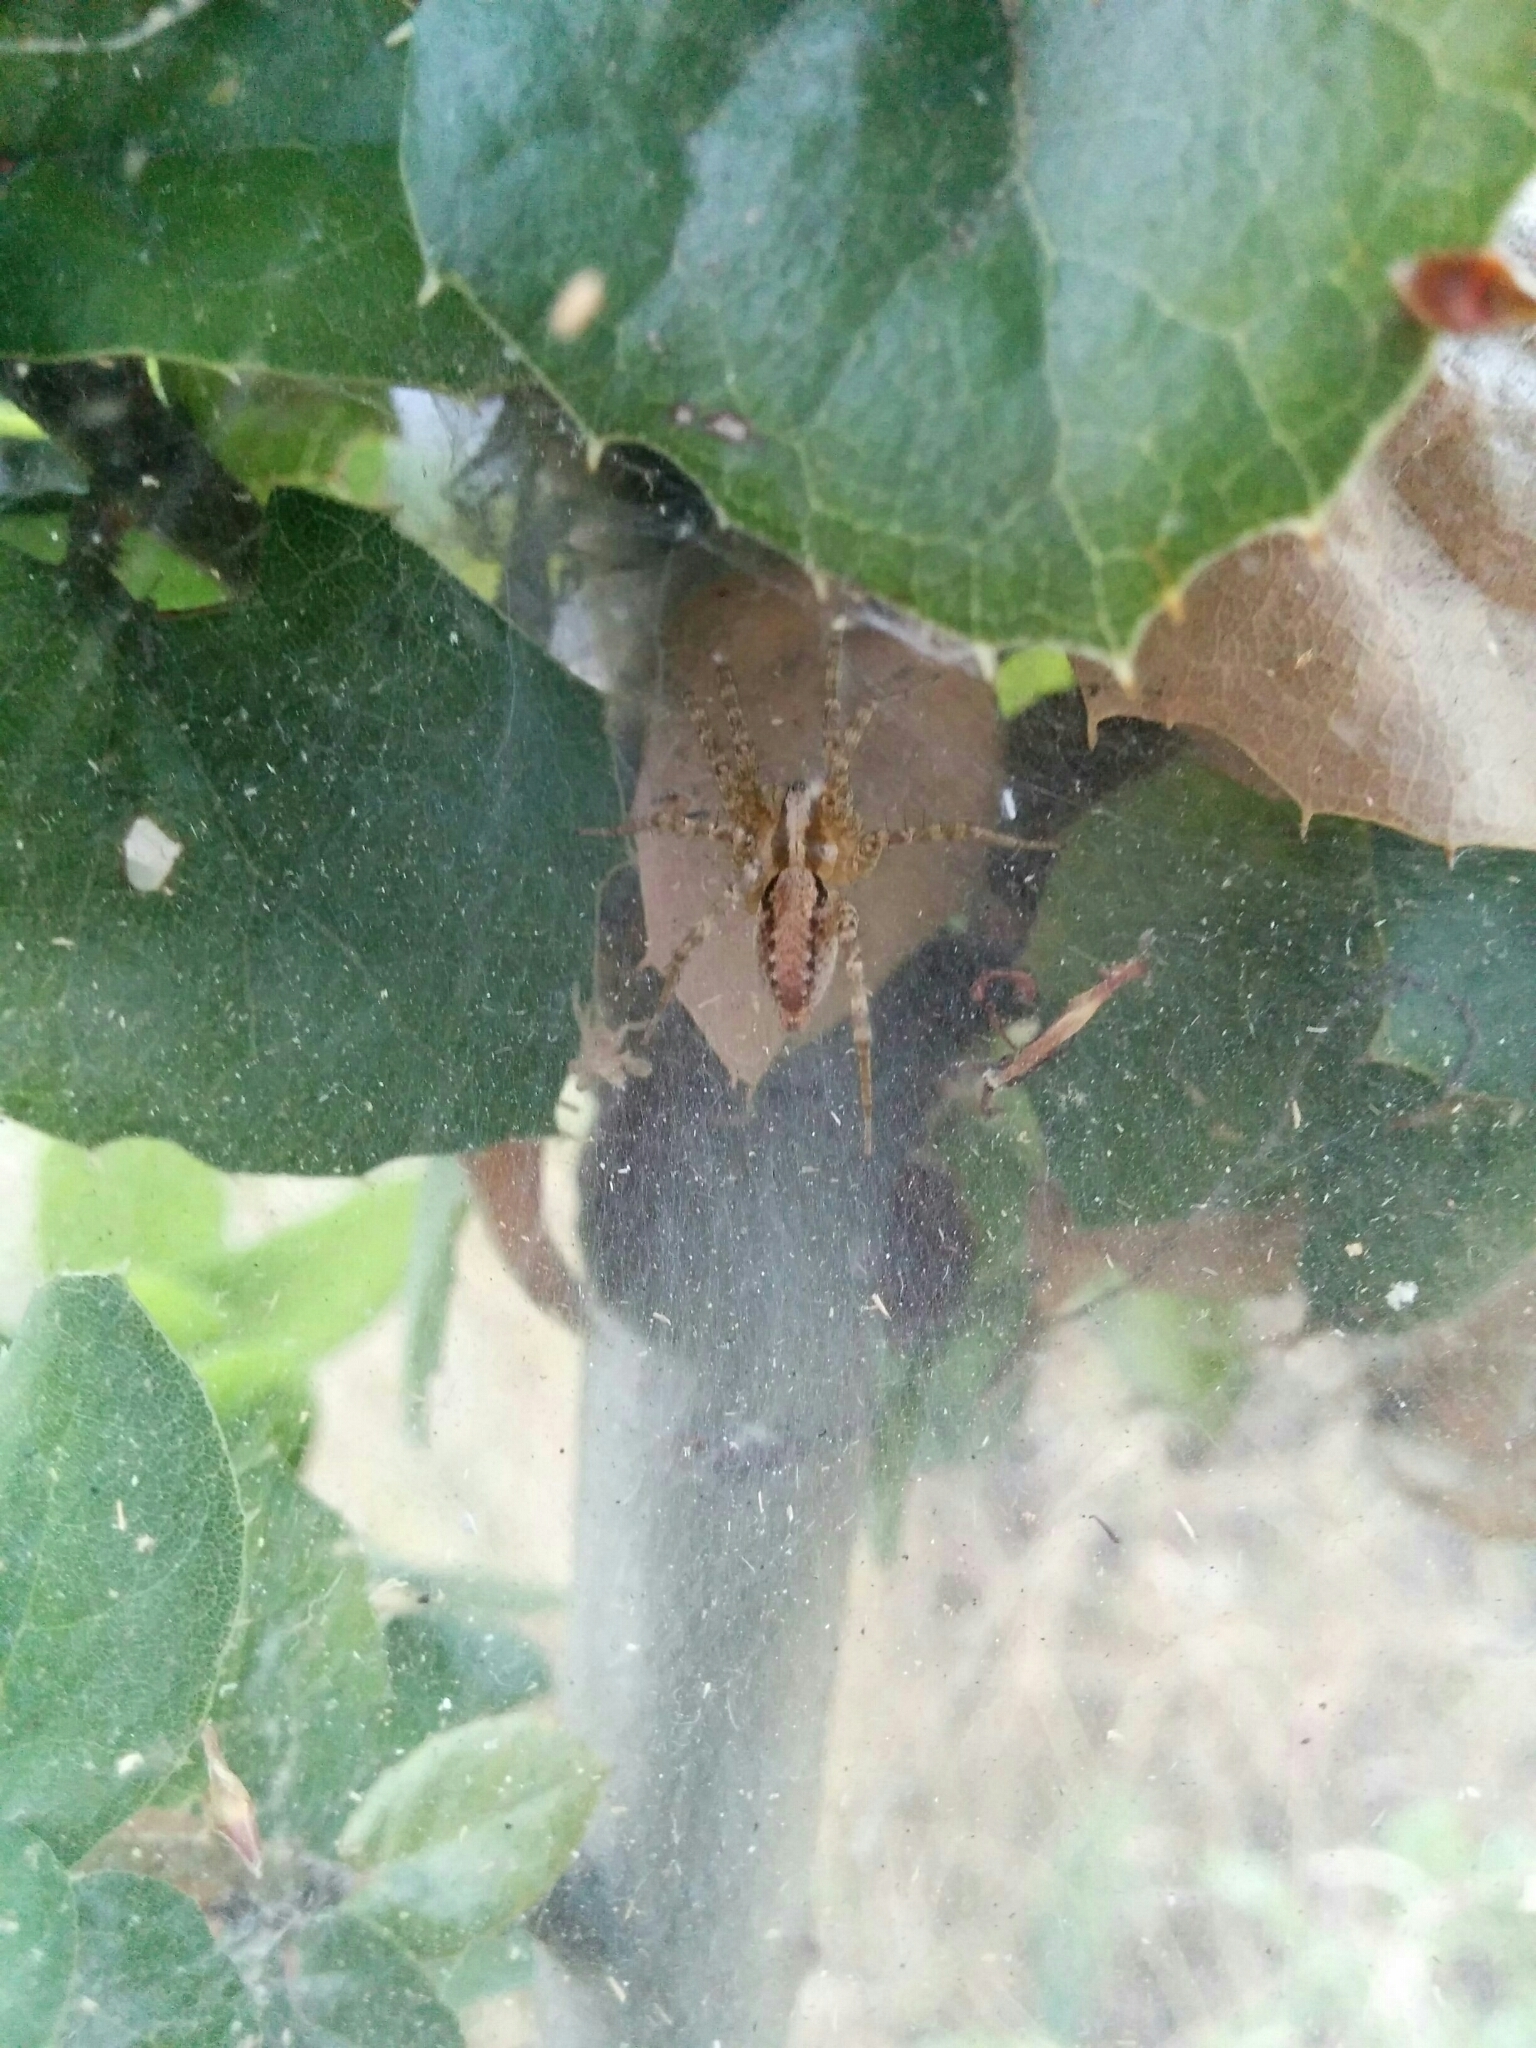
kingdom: Animalia
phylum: Arthropoda
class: Arachnida
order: Araneae
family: Agelenidae
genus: Hololena
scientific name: Hololena
